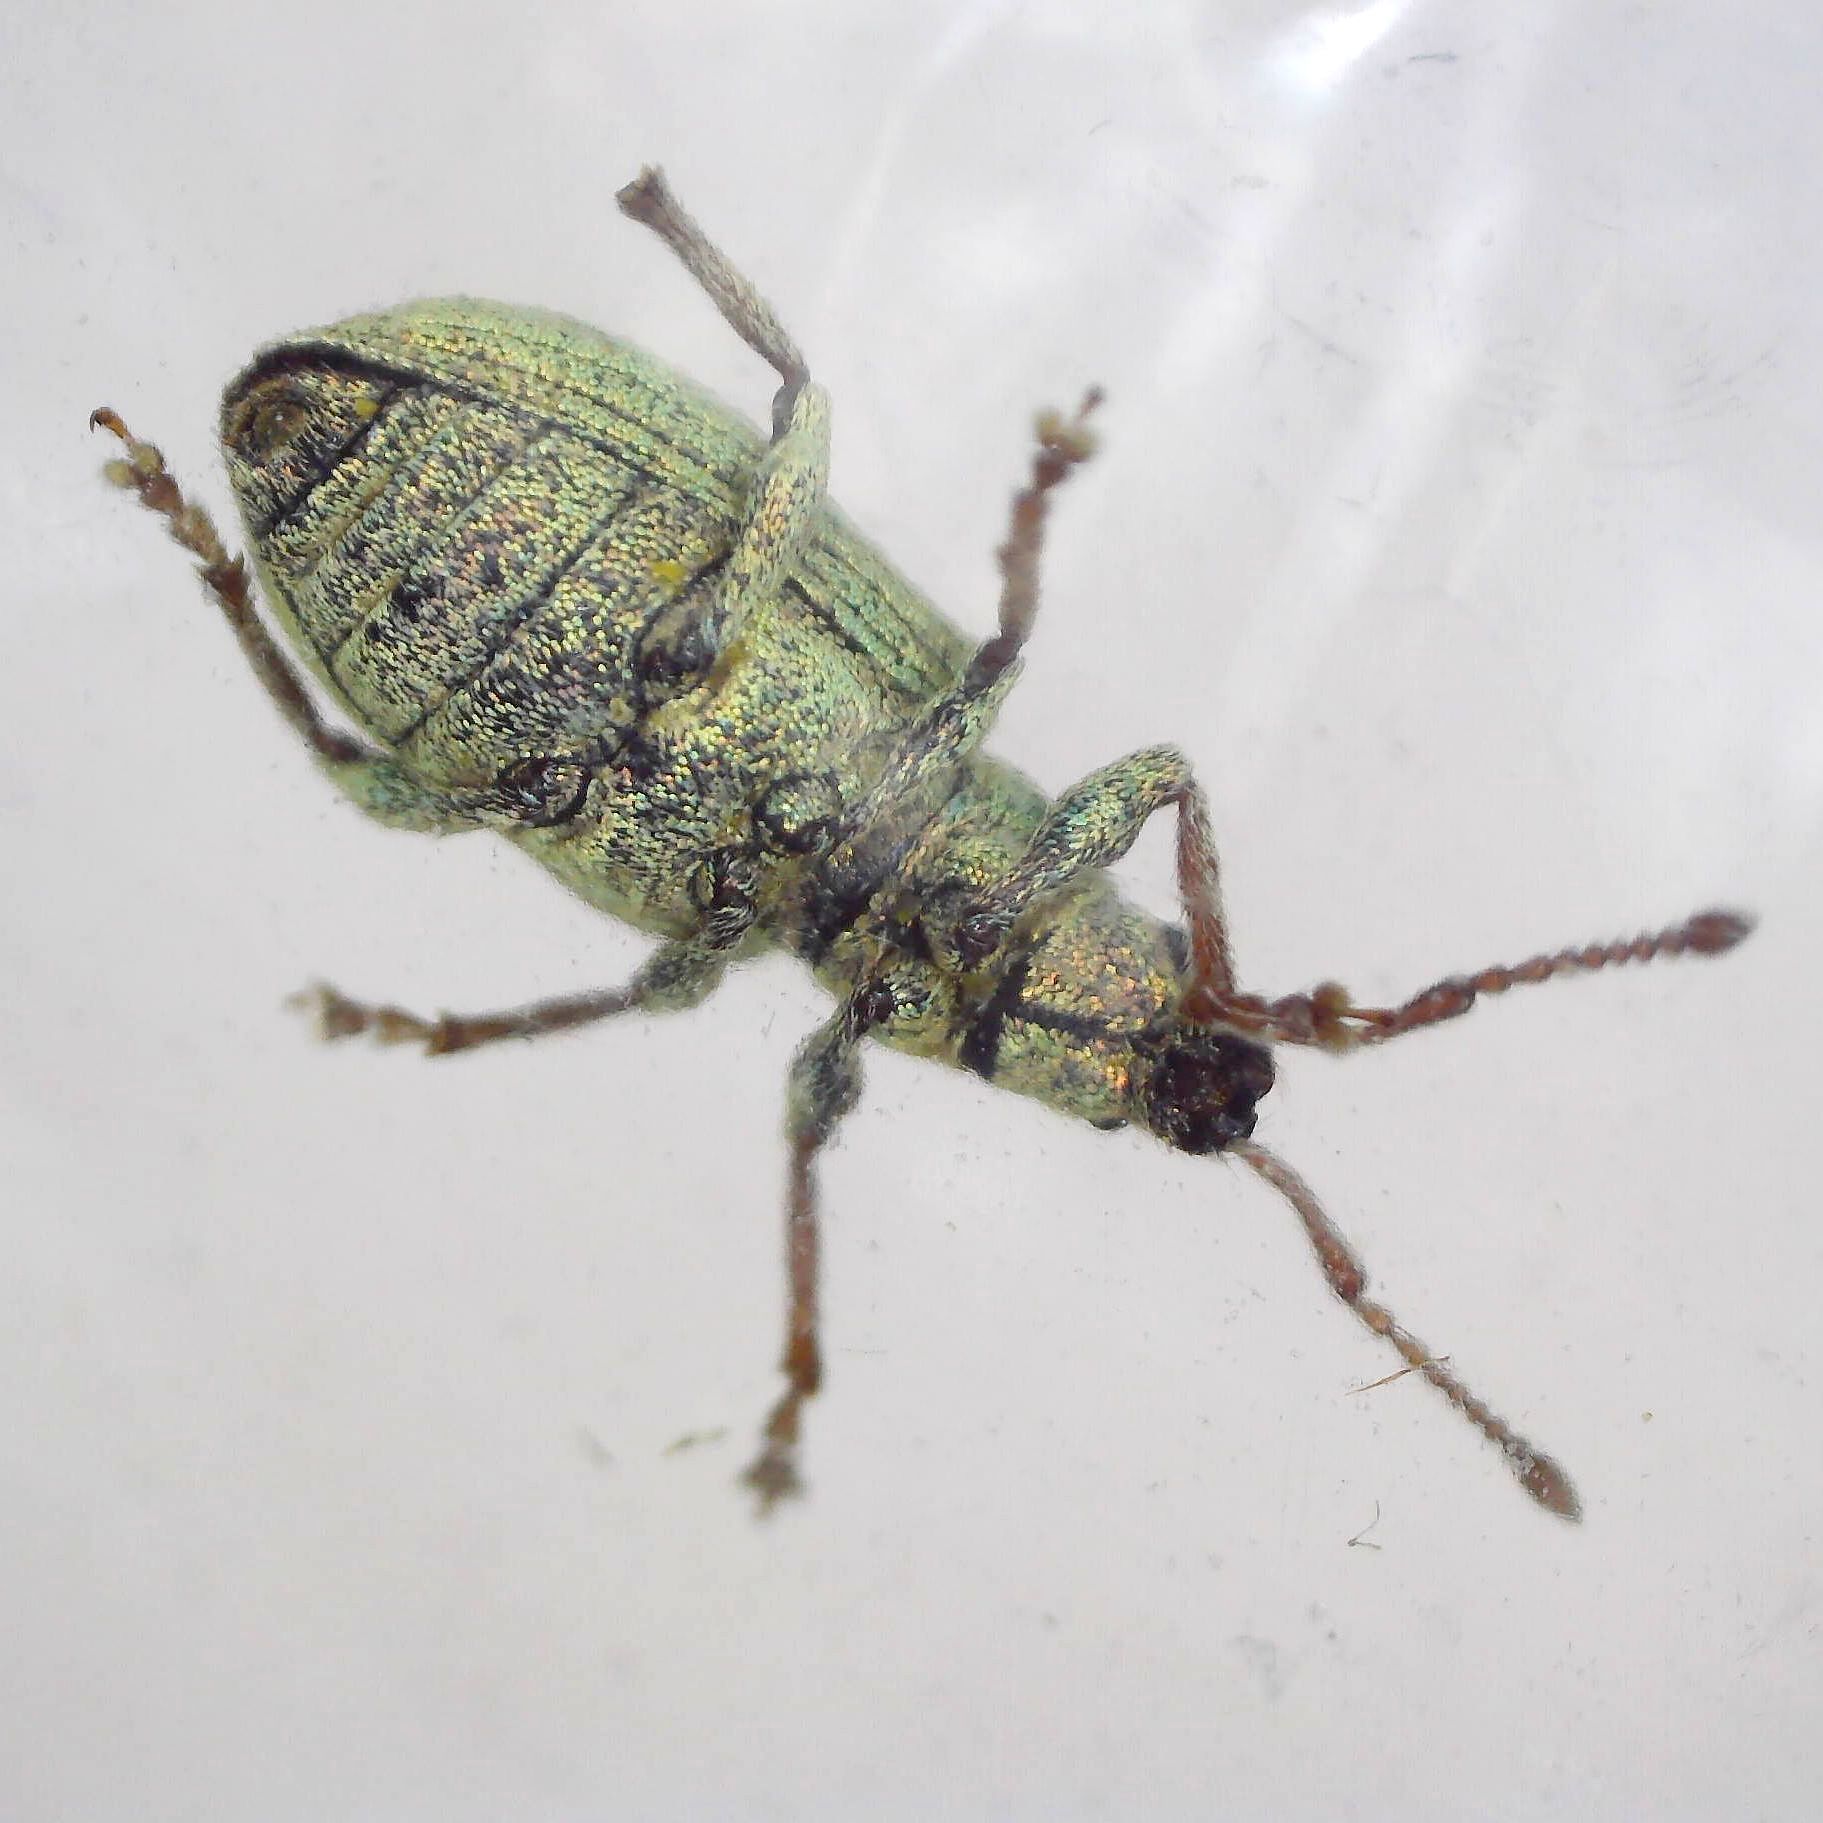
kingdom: Animalia
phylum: Arthropoda
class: Insecta
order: Coleoptera
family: Curculionidae
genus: Phyllobius
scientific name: Phyllobius virideaeris
